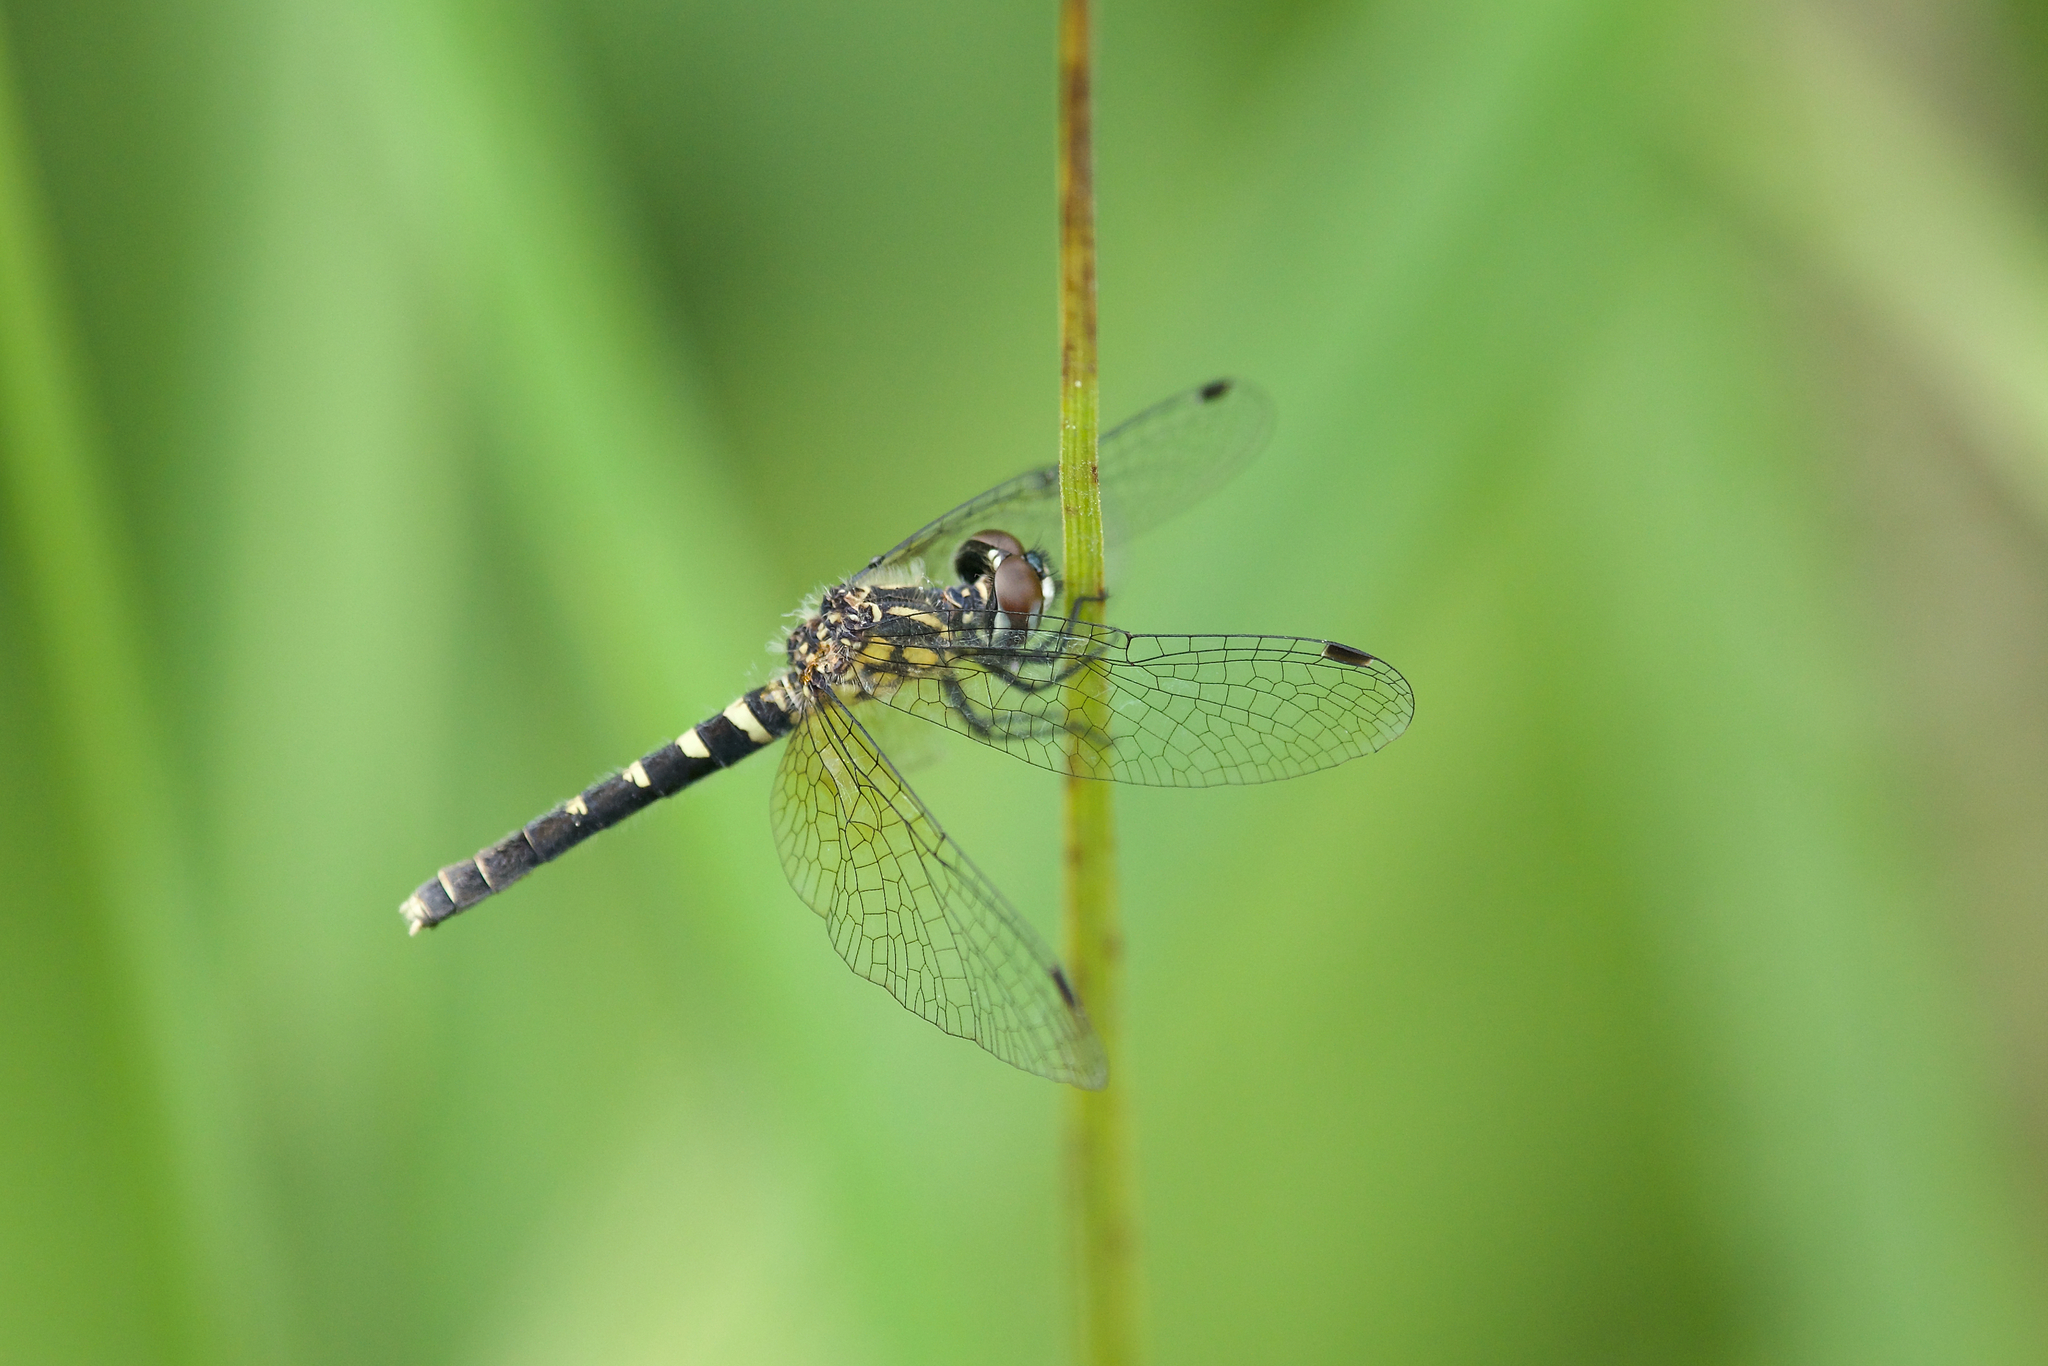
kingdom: Animalia
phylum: Arthropoda
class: Insecta
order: Odonata
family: Libellulidae
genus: Nannothemis
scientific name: Nannothemis bella
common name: Elfin skimmer
